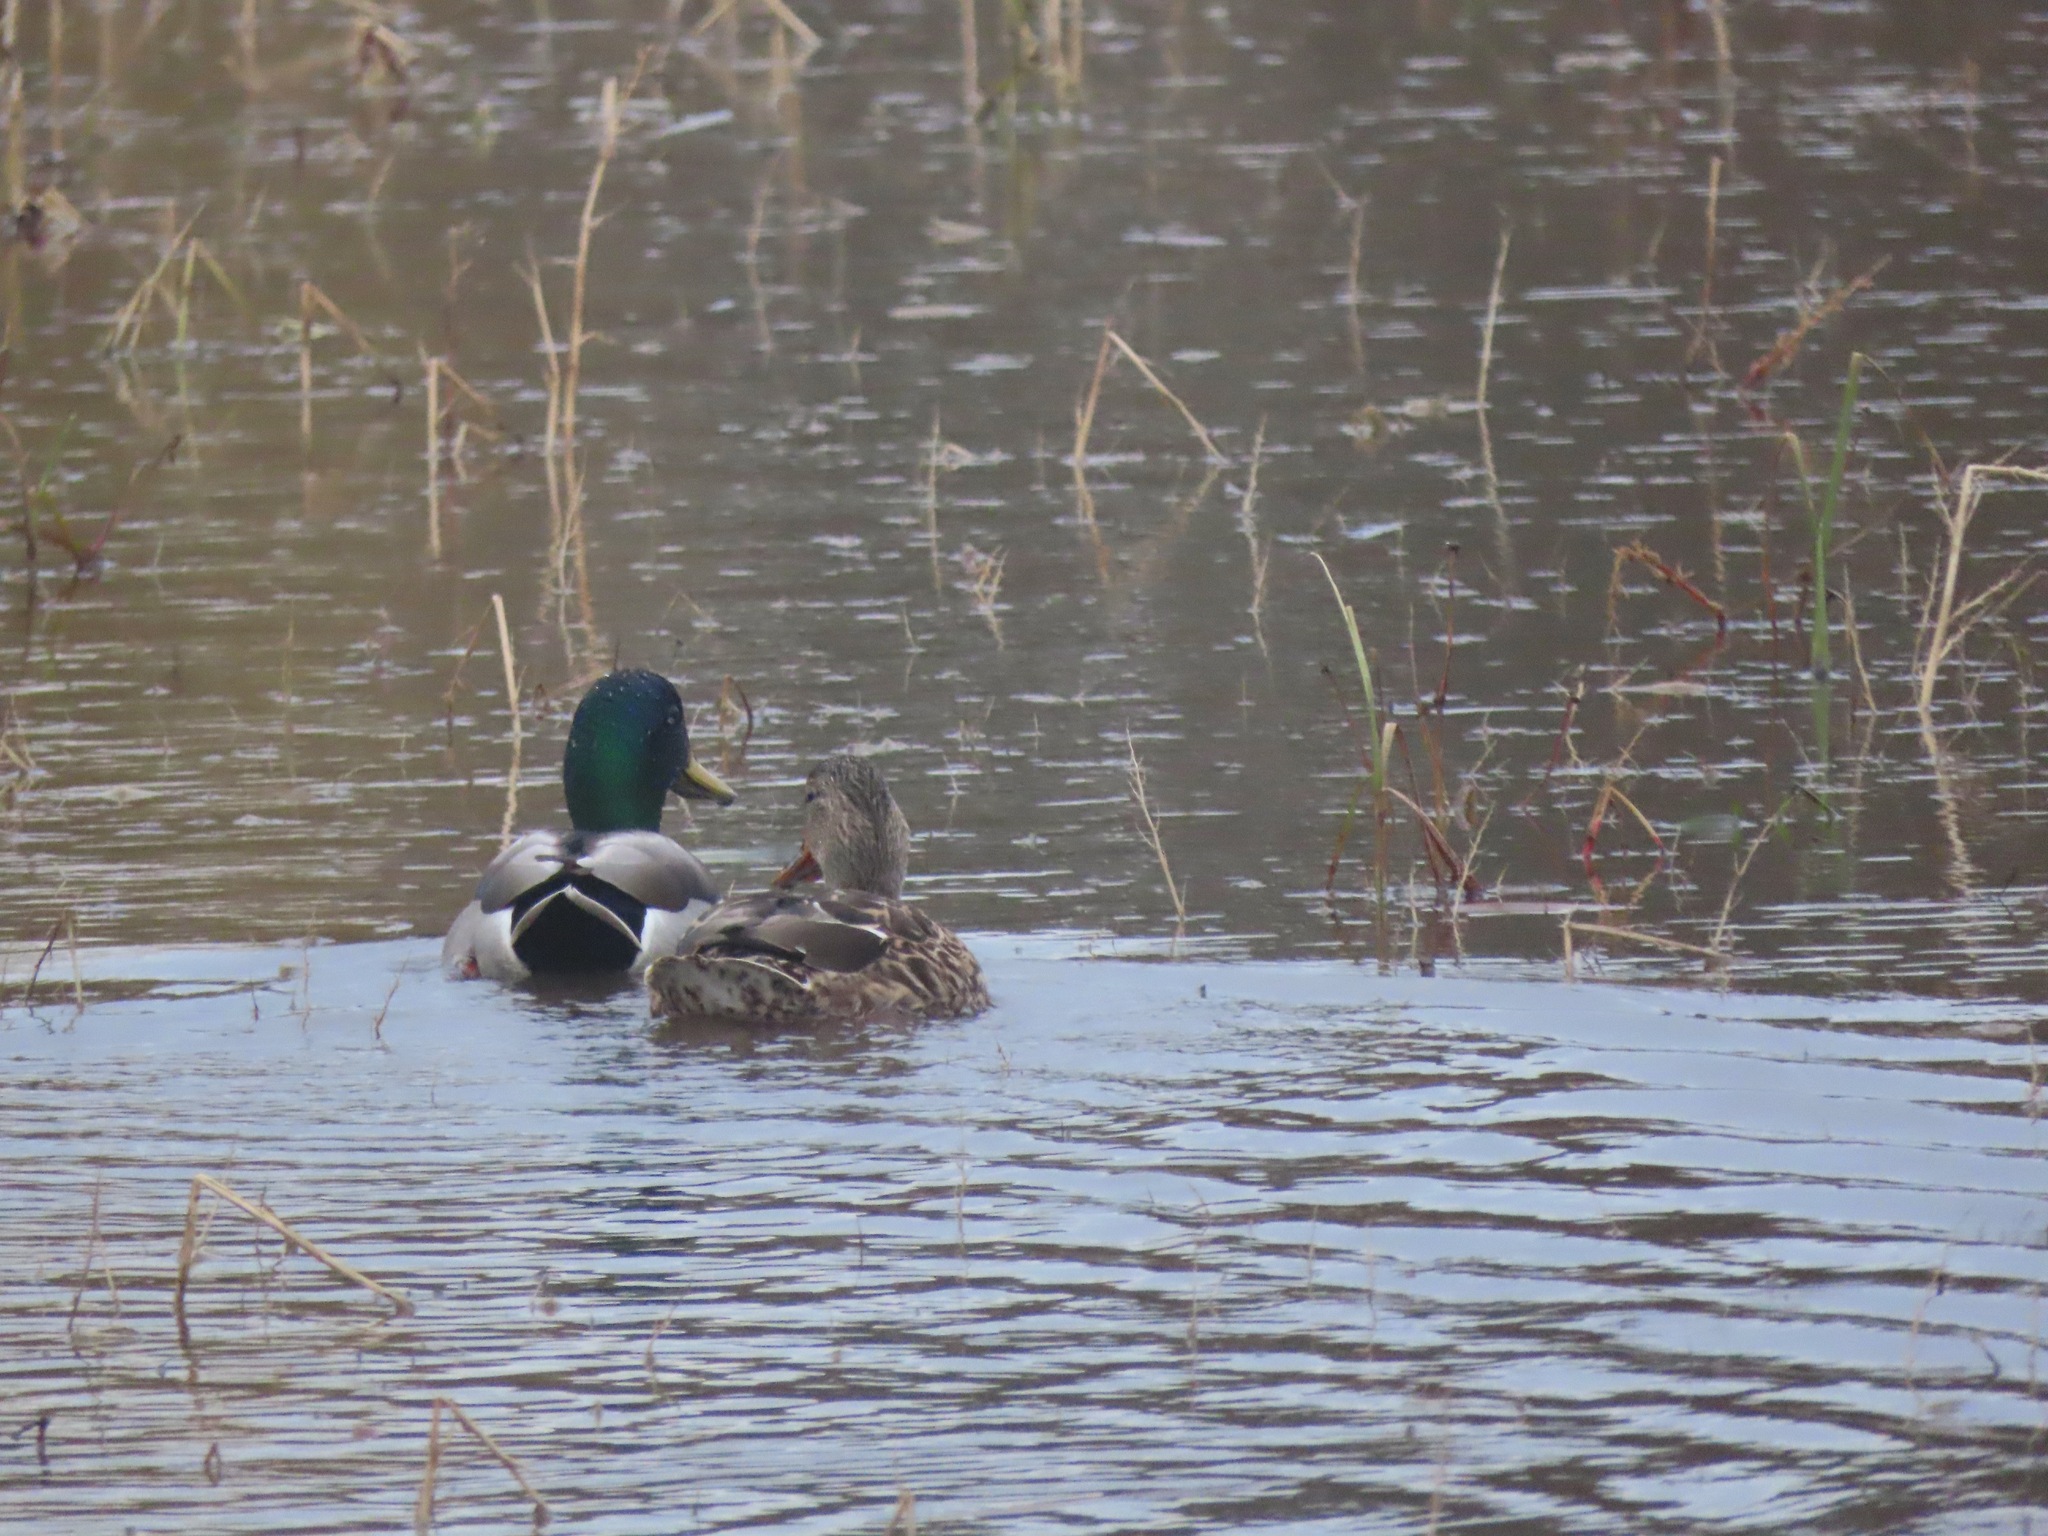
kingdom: Animalia
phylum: Chordata
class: Aves
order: Anseriformes
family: Anatidae
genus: Anas
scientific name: Anas platyrhynchos
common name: Mallard
